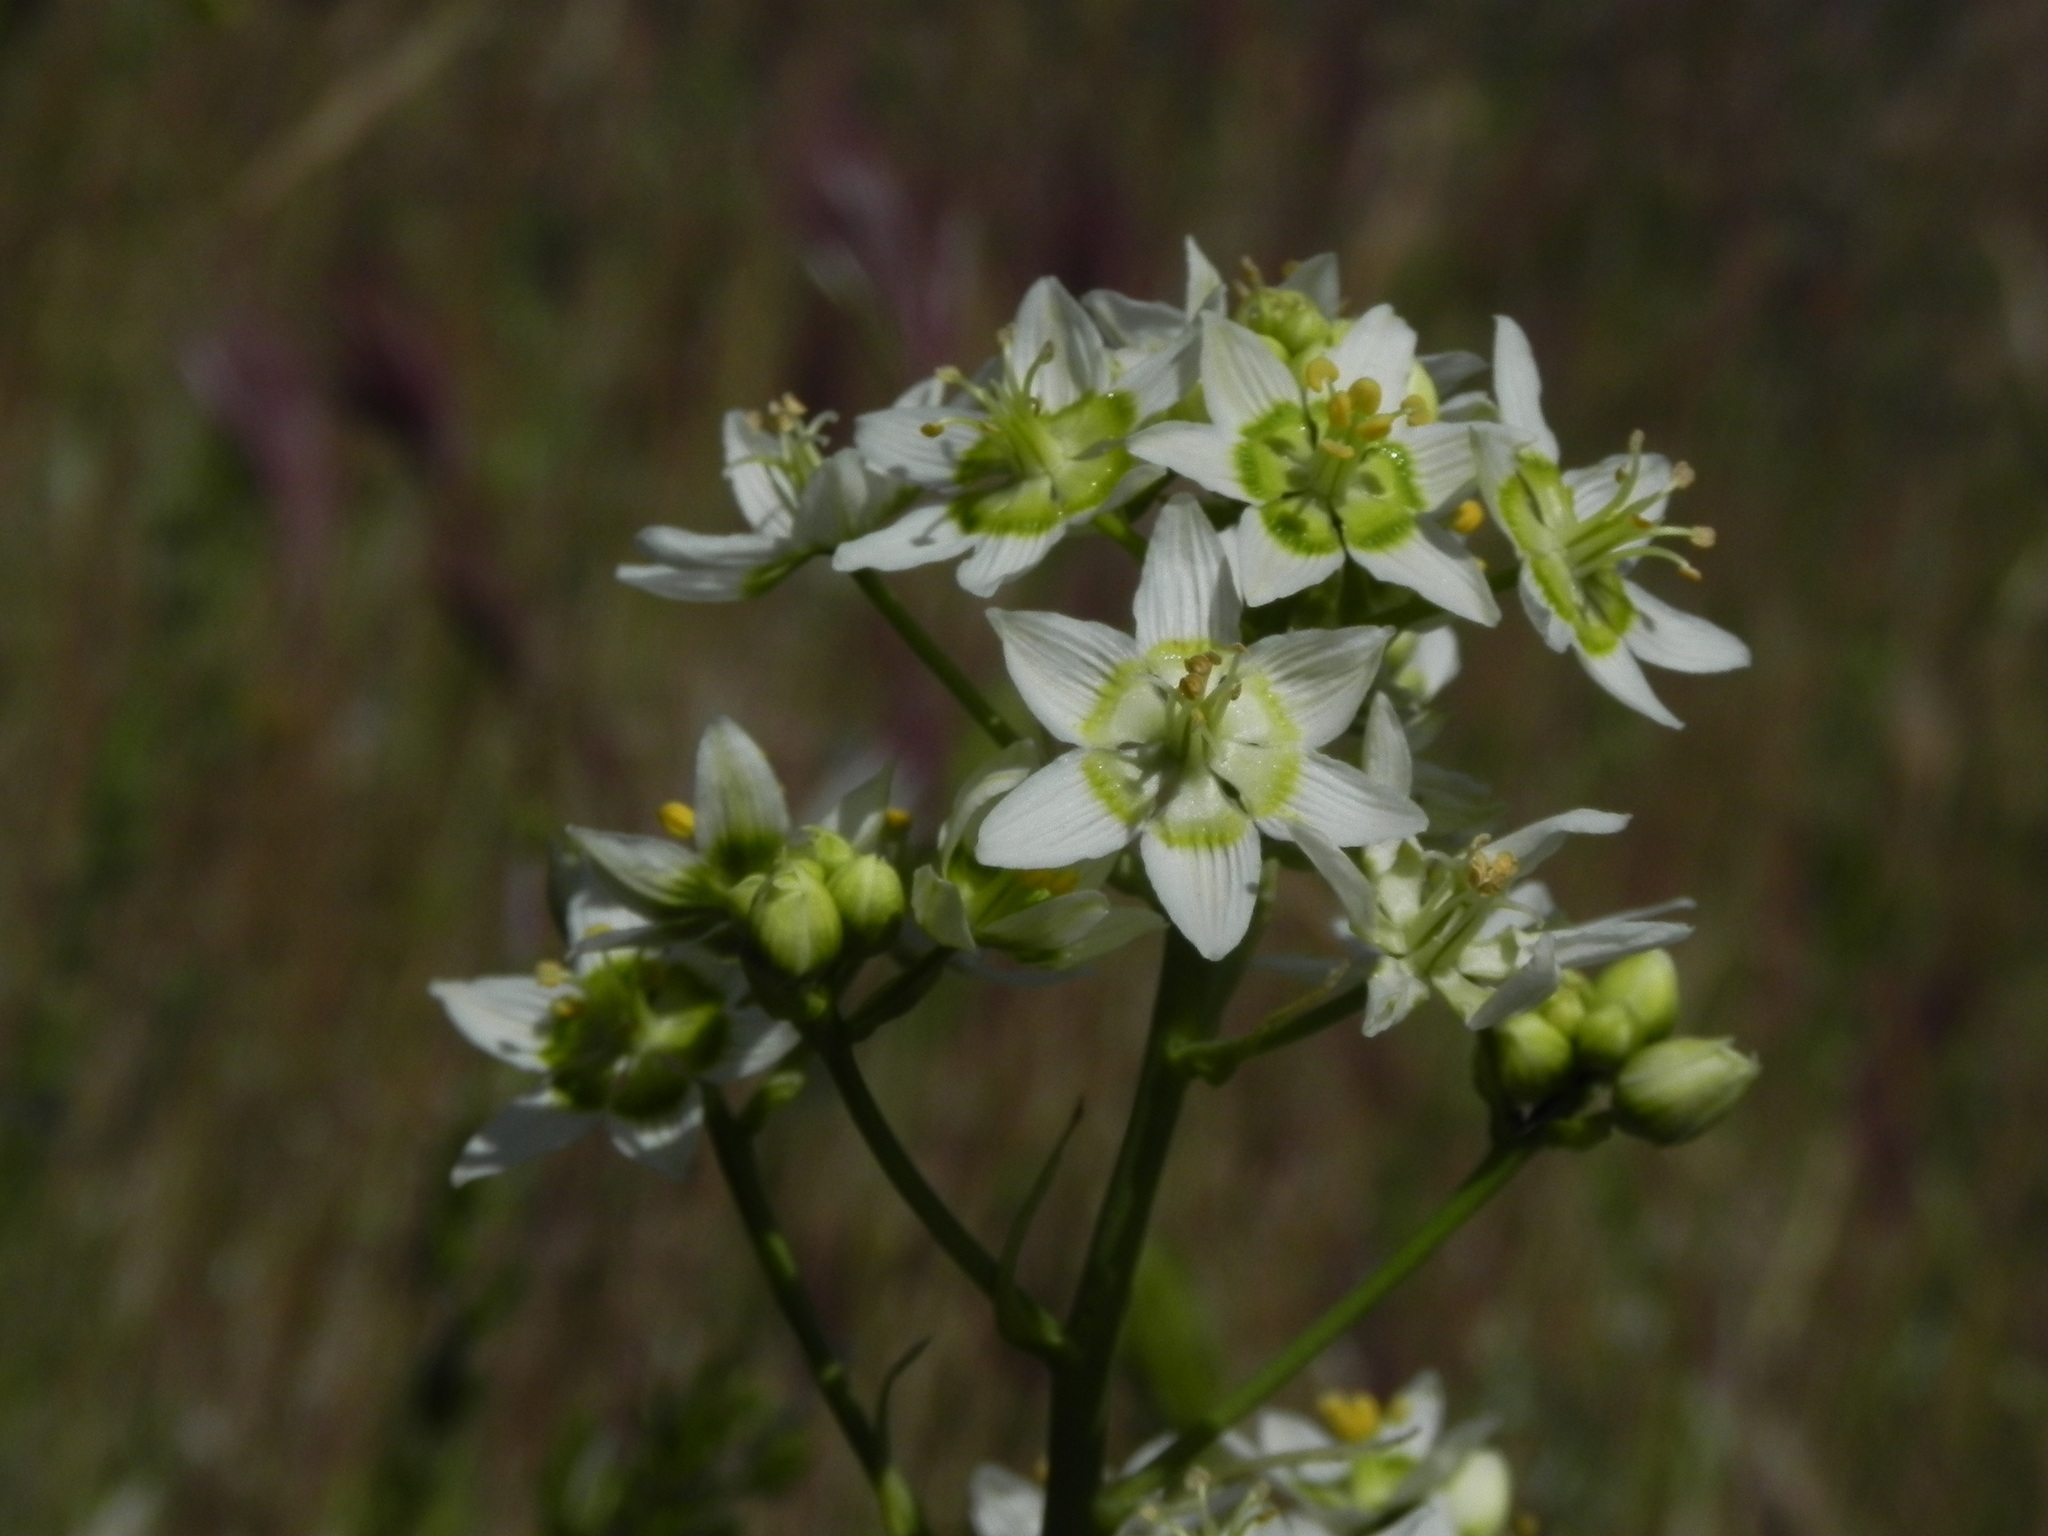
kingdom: Plantae
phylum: Tracheophyta
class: Liliopsida
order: Liliales
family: Melanthiaceae
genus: Toxicoscordion
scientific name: Toxicoscordion fremontii
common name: Fremont's death camas
